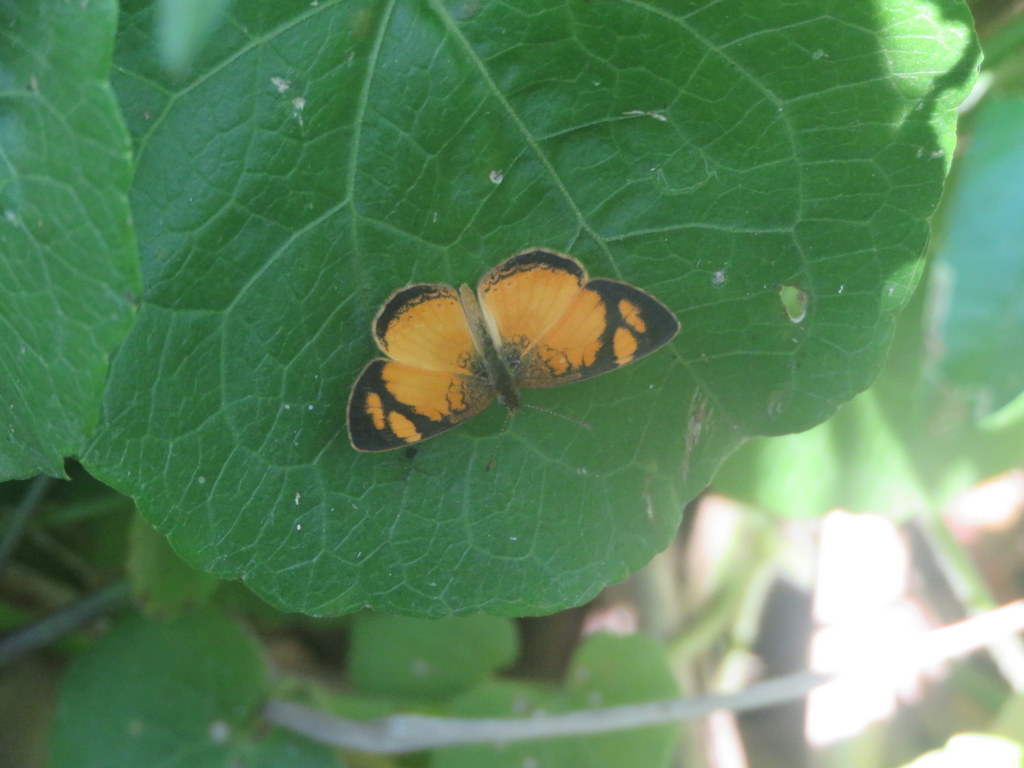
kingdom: Animalia
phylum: Arthropoda
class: Insecta
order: Lepidoptera
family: Nymphalidae
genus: Tegosa
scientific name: Tegosa claudina
